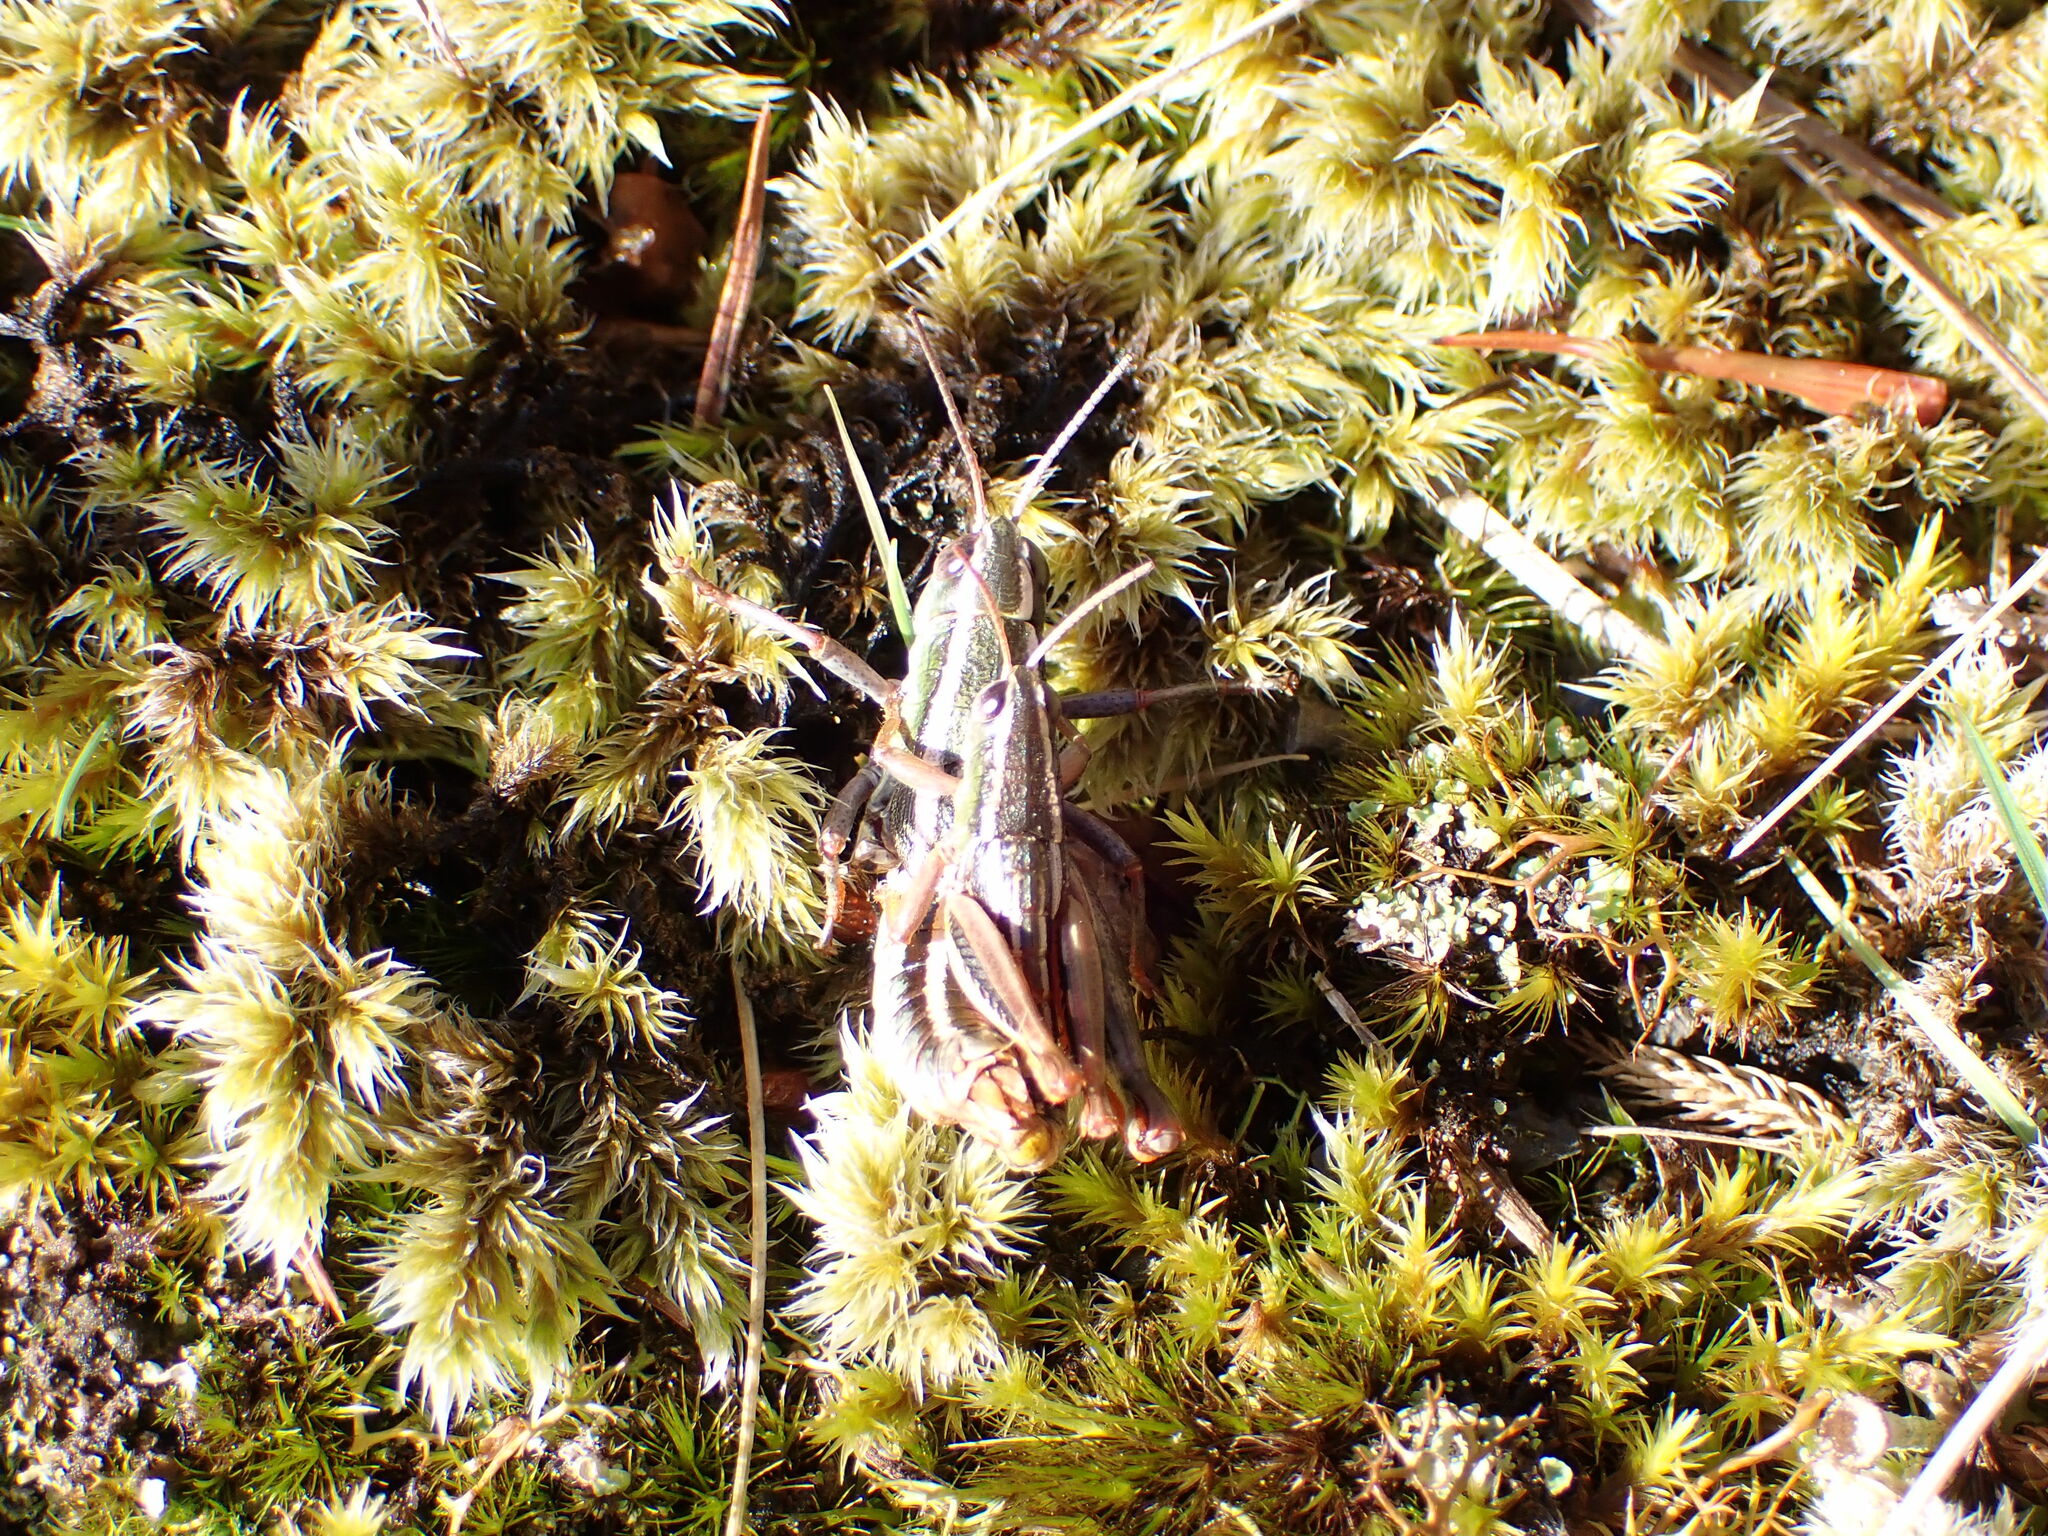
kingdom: Animalia
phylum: Arthropoda
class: Insecta
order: Orthoptera
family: Acrididae
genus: Sigaus
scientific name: Sigaus
